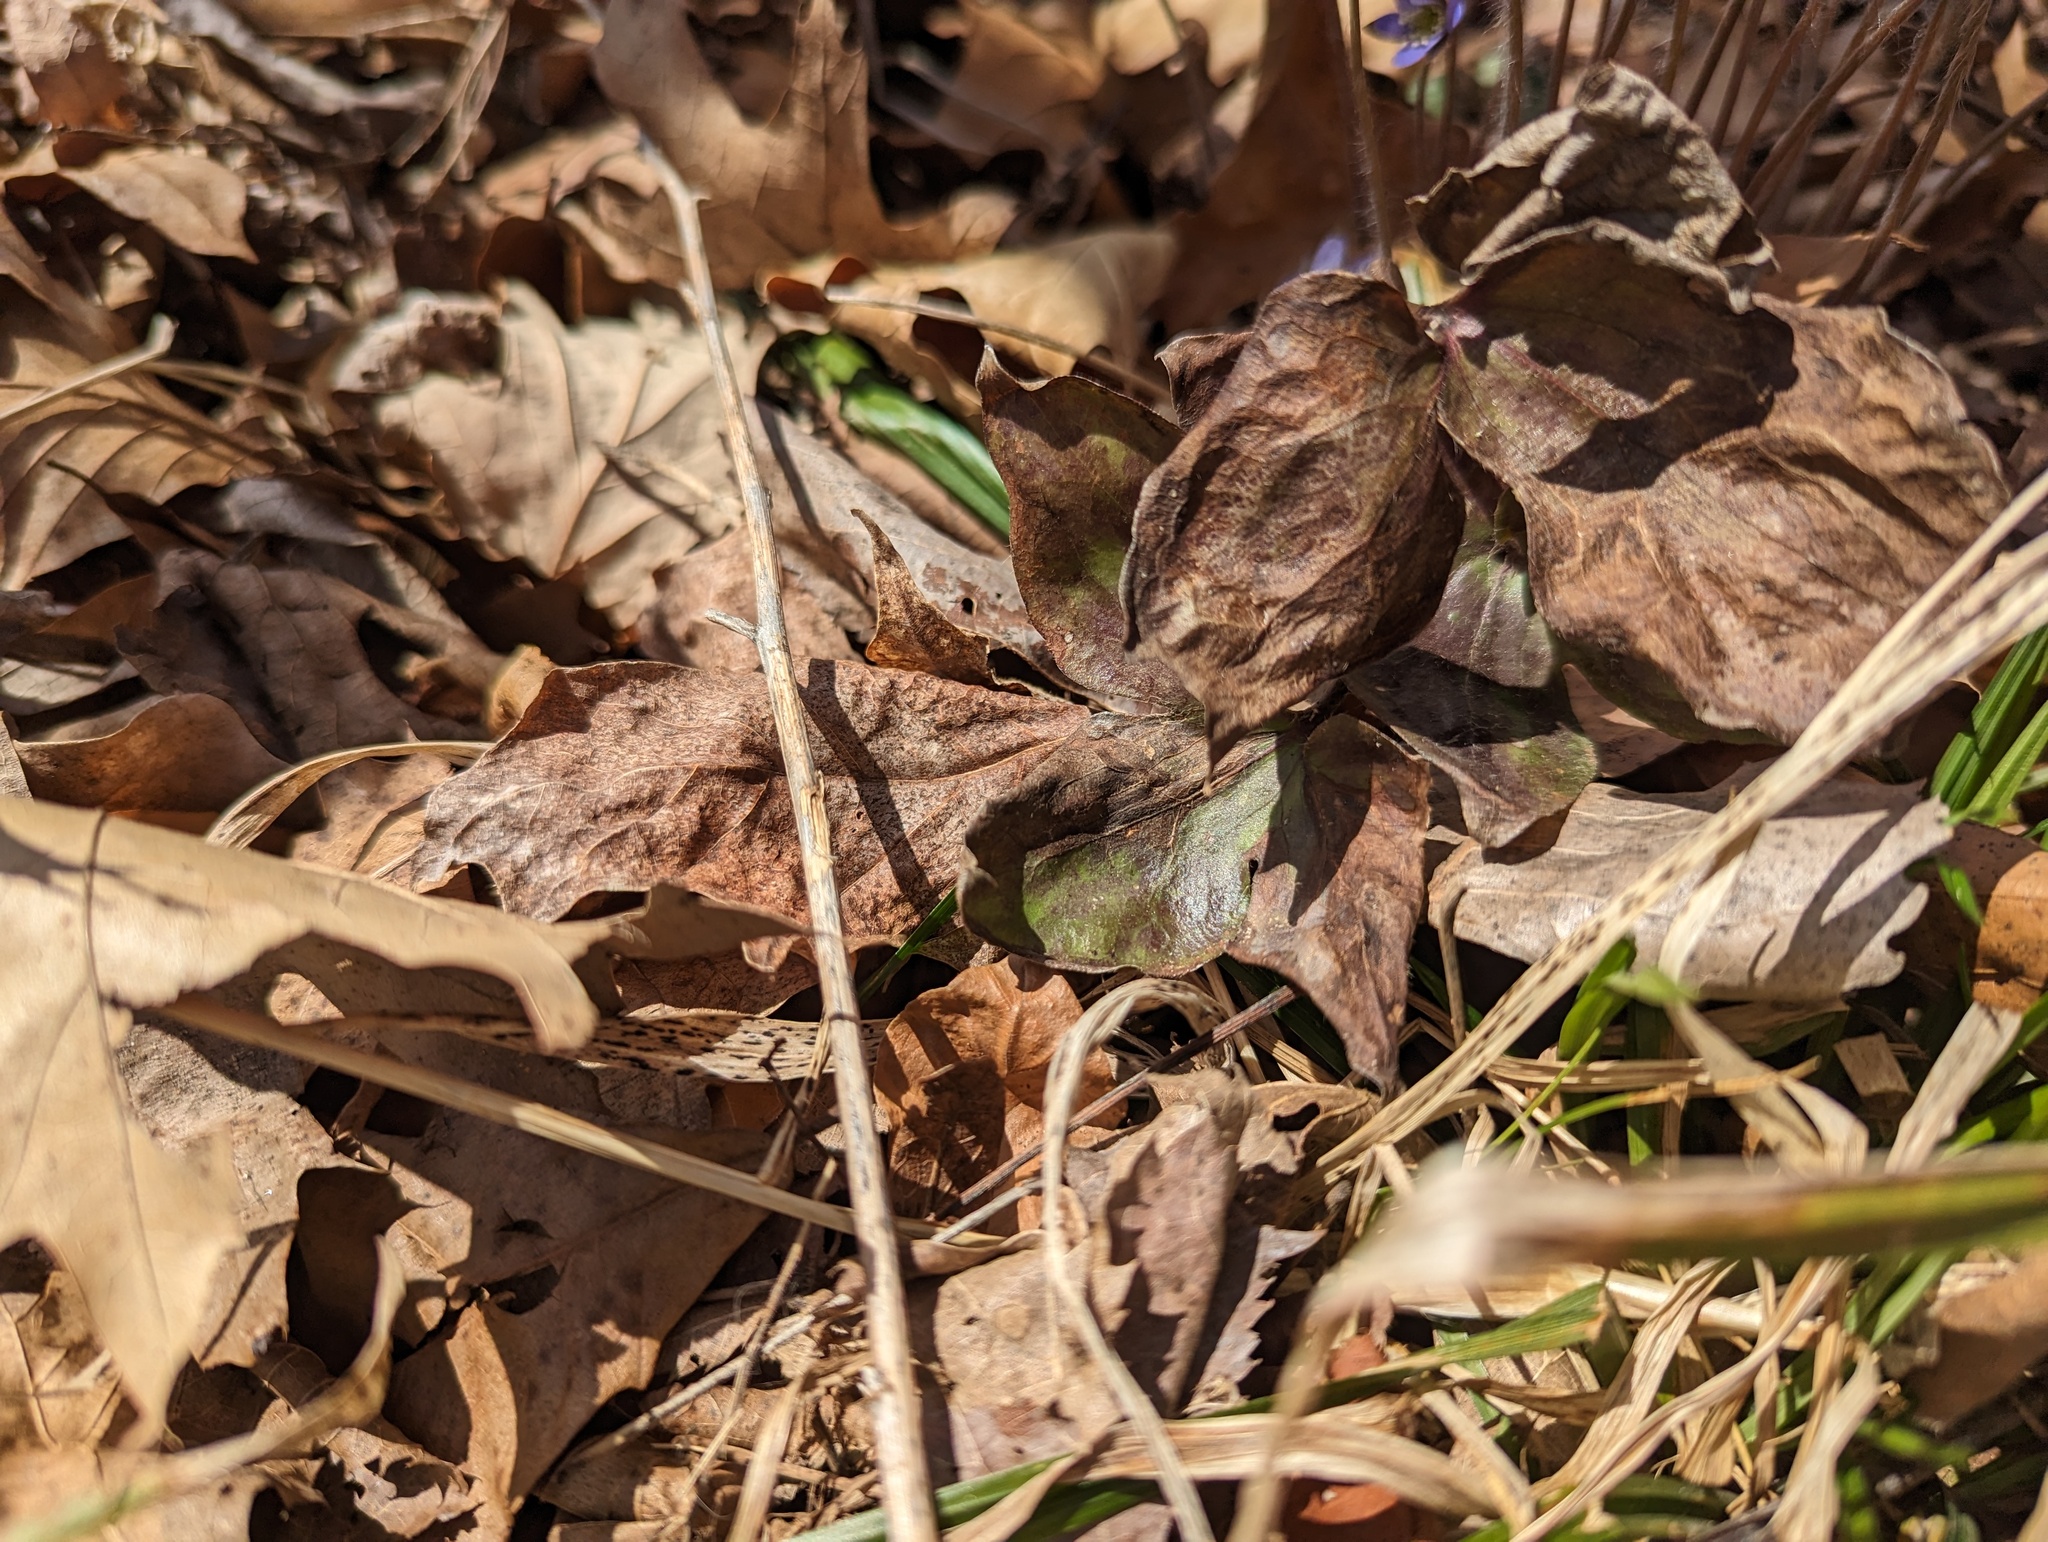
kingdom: Plantae
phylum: Tracheophyta
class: Magnoliopsida
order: Ranunculales
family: Ranunculaceae
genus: Hepatica
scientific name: Hepatica acutiloba
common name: Sharp-lobed hepatica
